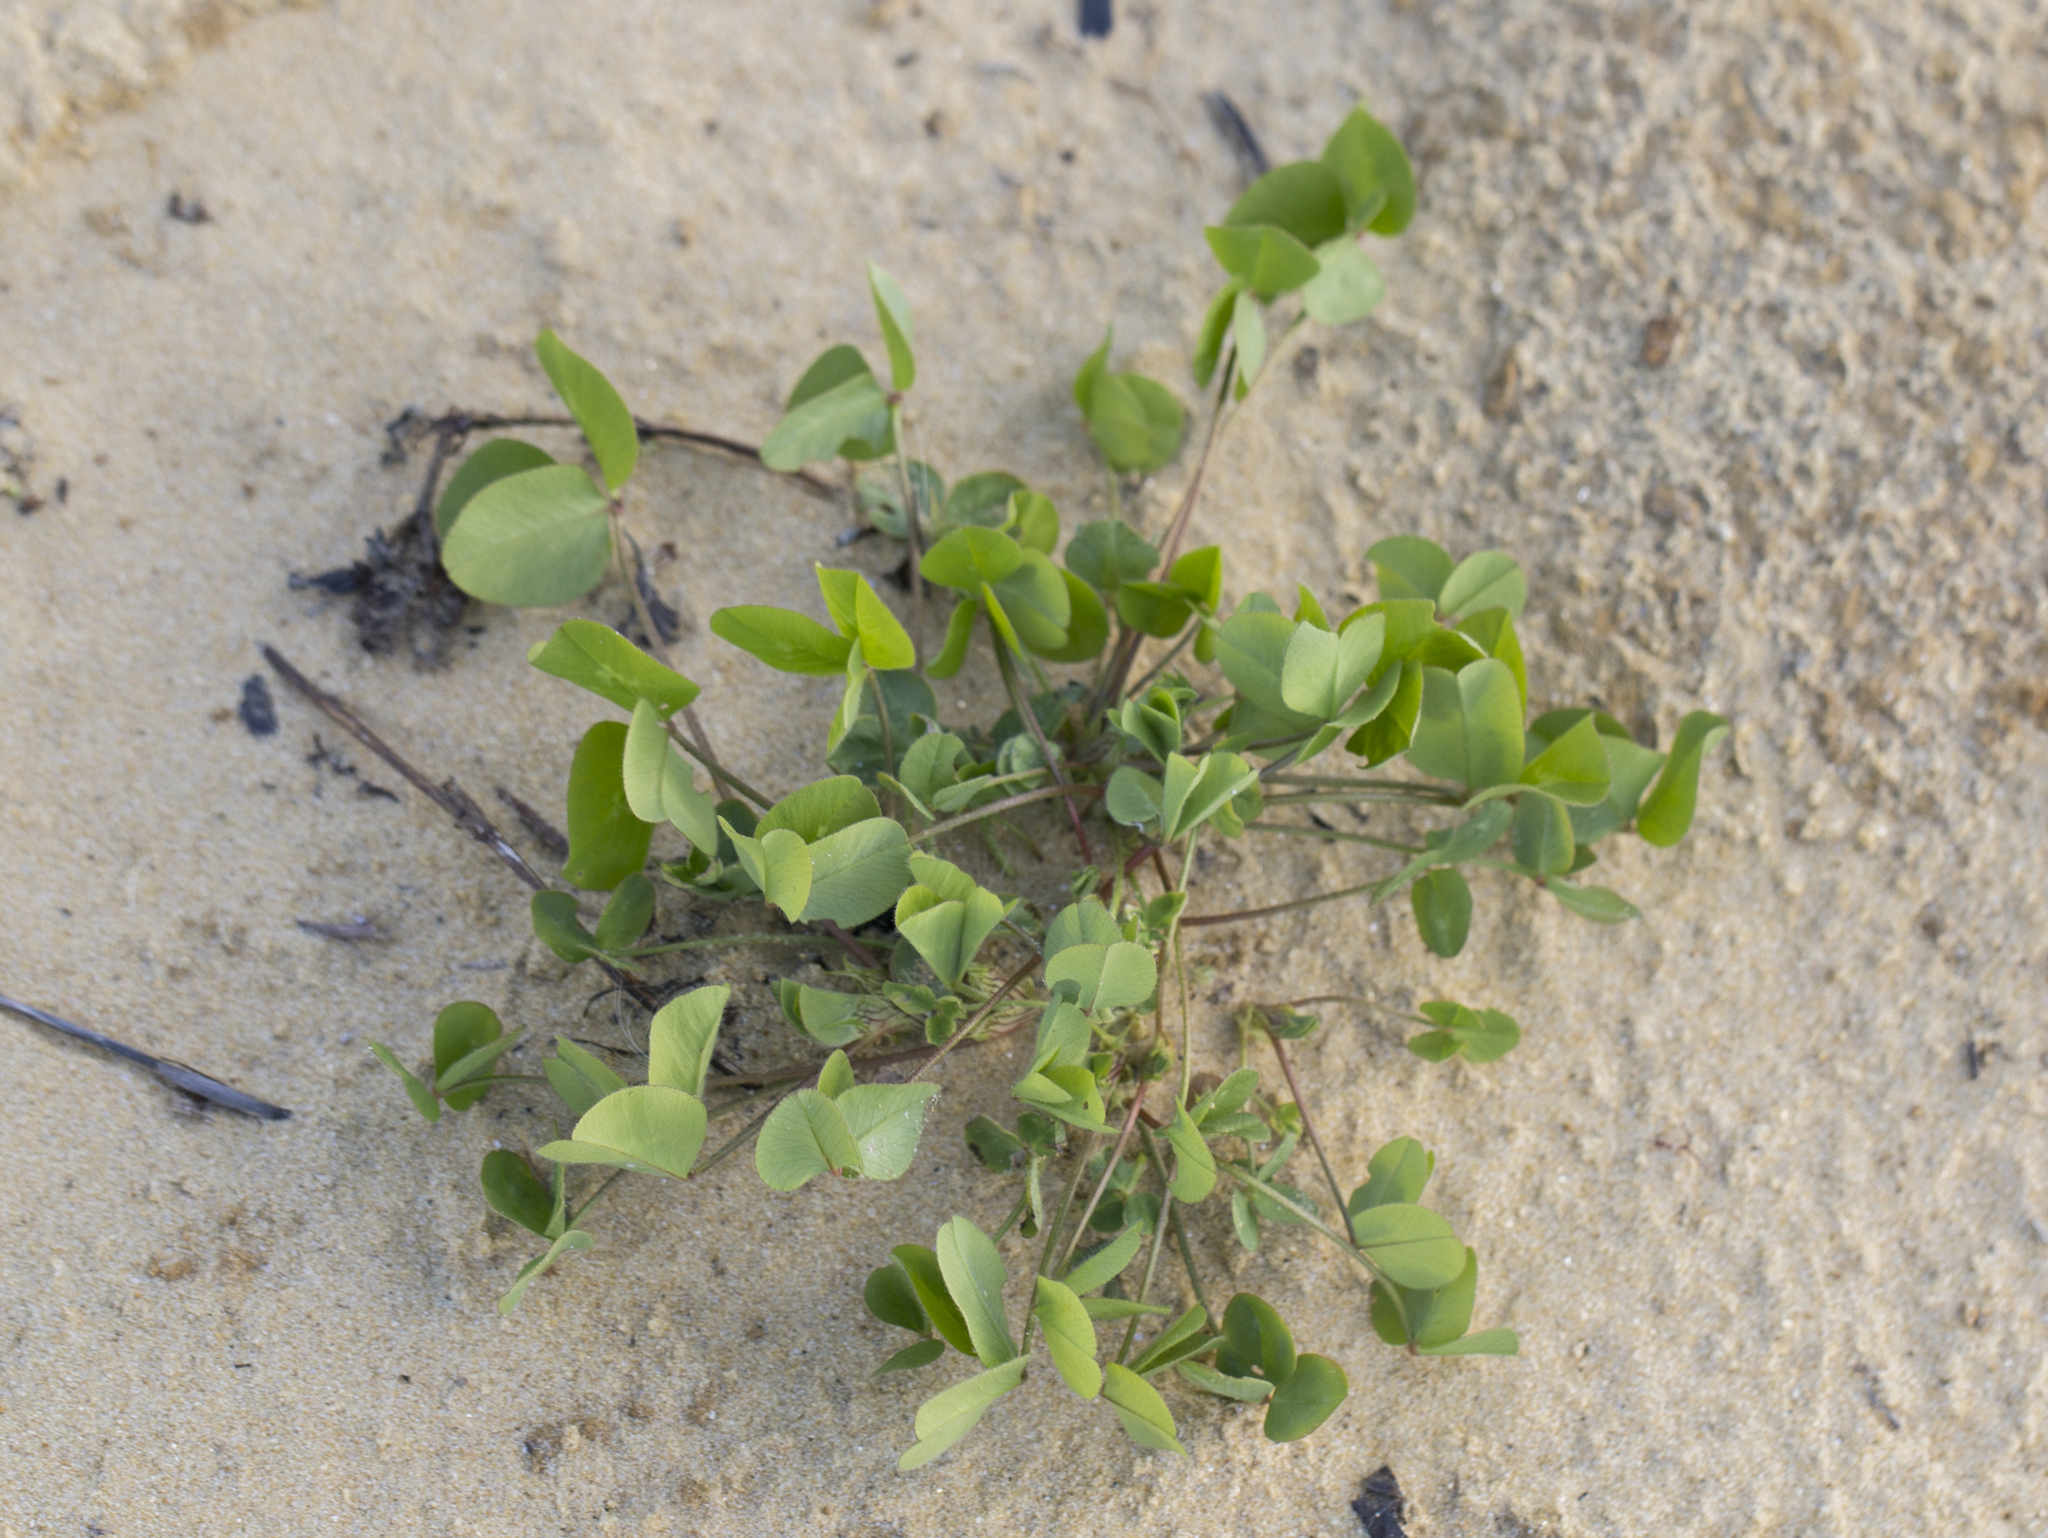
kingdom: Plantae
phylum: Tracheophyta
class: Magnoliopsida
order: Fabales
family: Fabaceae
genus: Trifolium
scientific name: Trifolium hybridum
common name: Alsike clover
